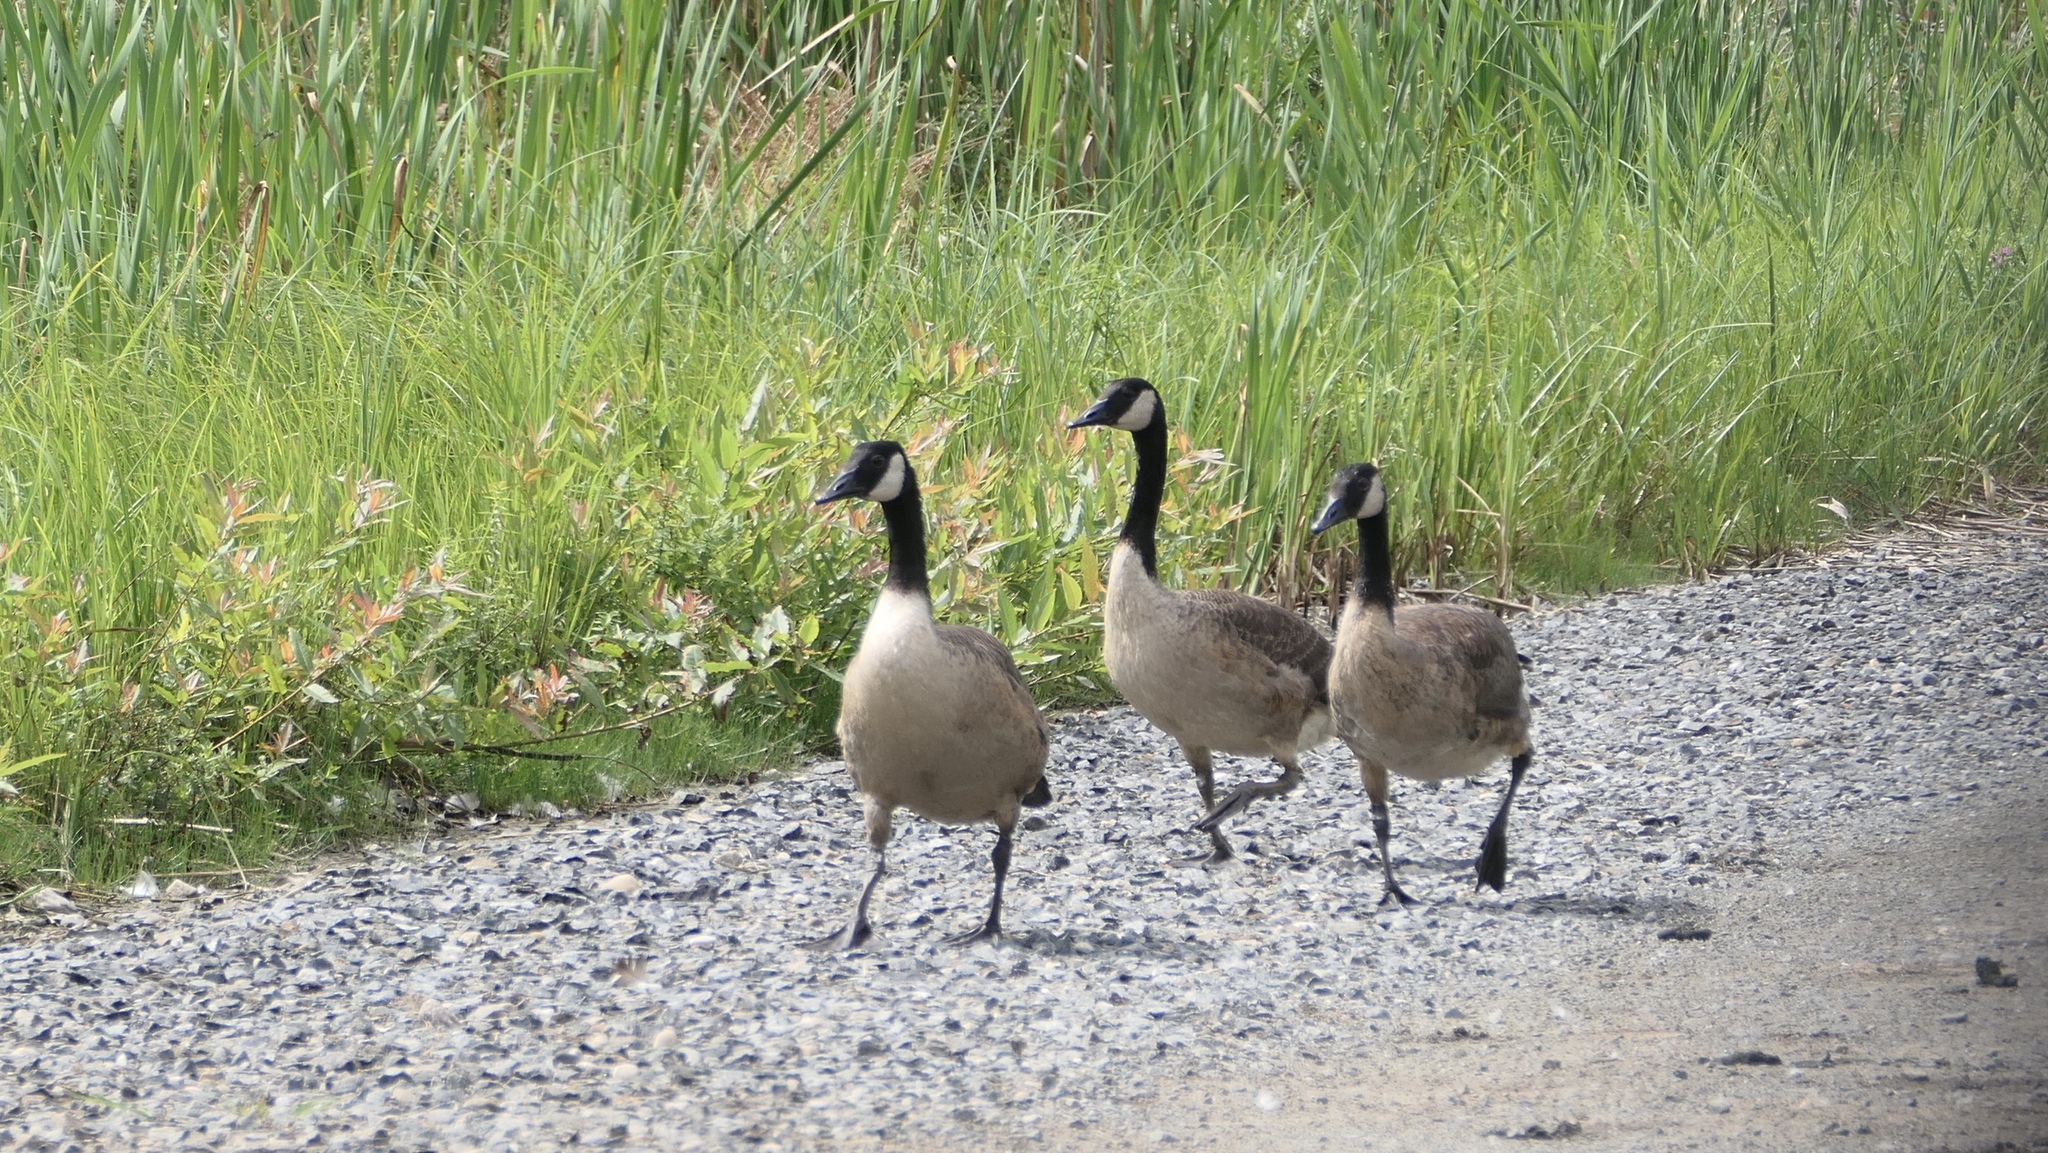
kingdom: Animalia
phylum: Chordata
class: Aves
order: Anseriformes
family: Anatidae
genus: Branta
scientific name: Branta canadensis
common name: Canada goose
